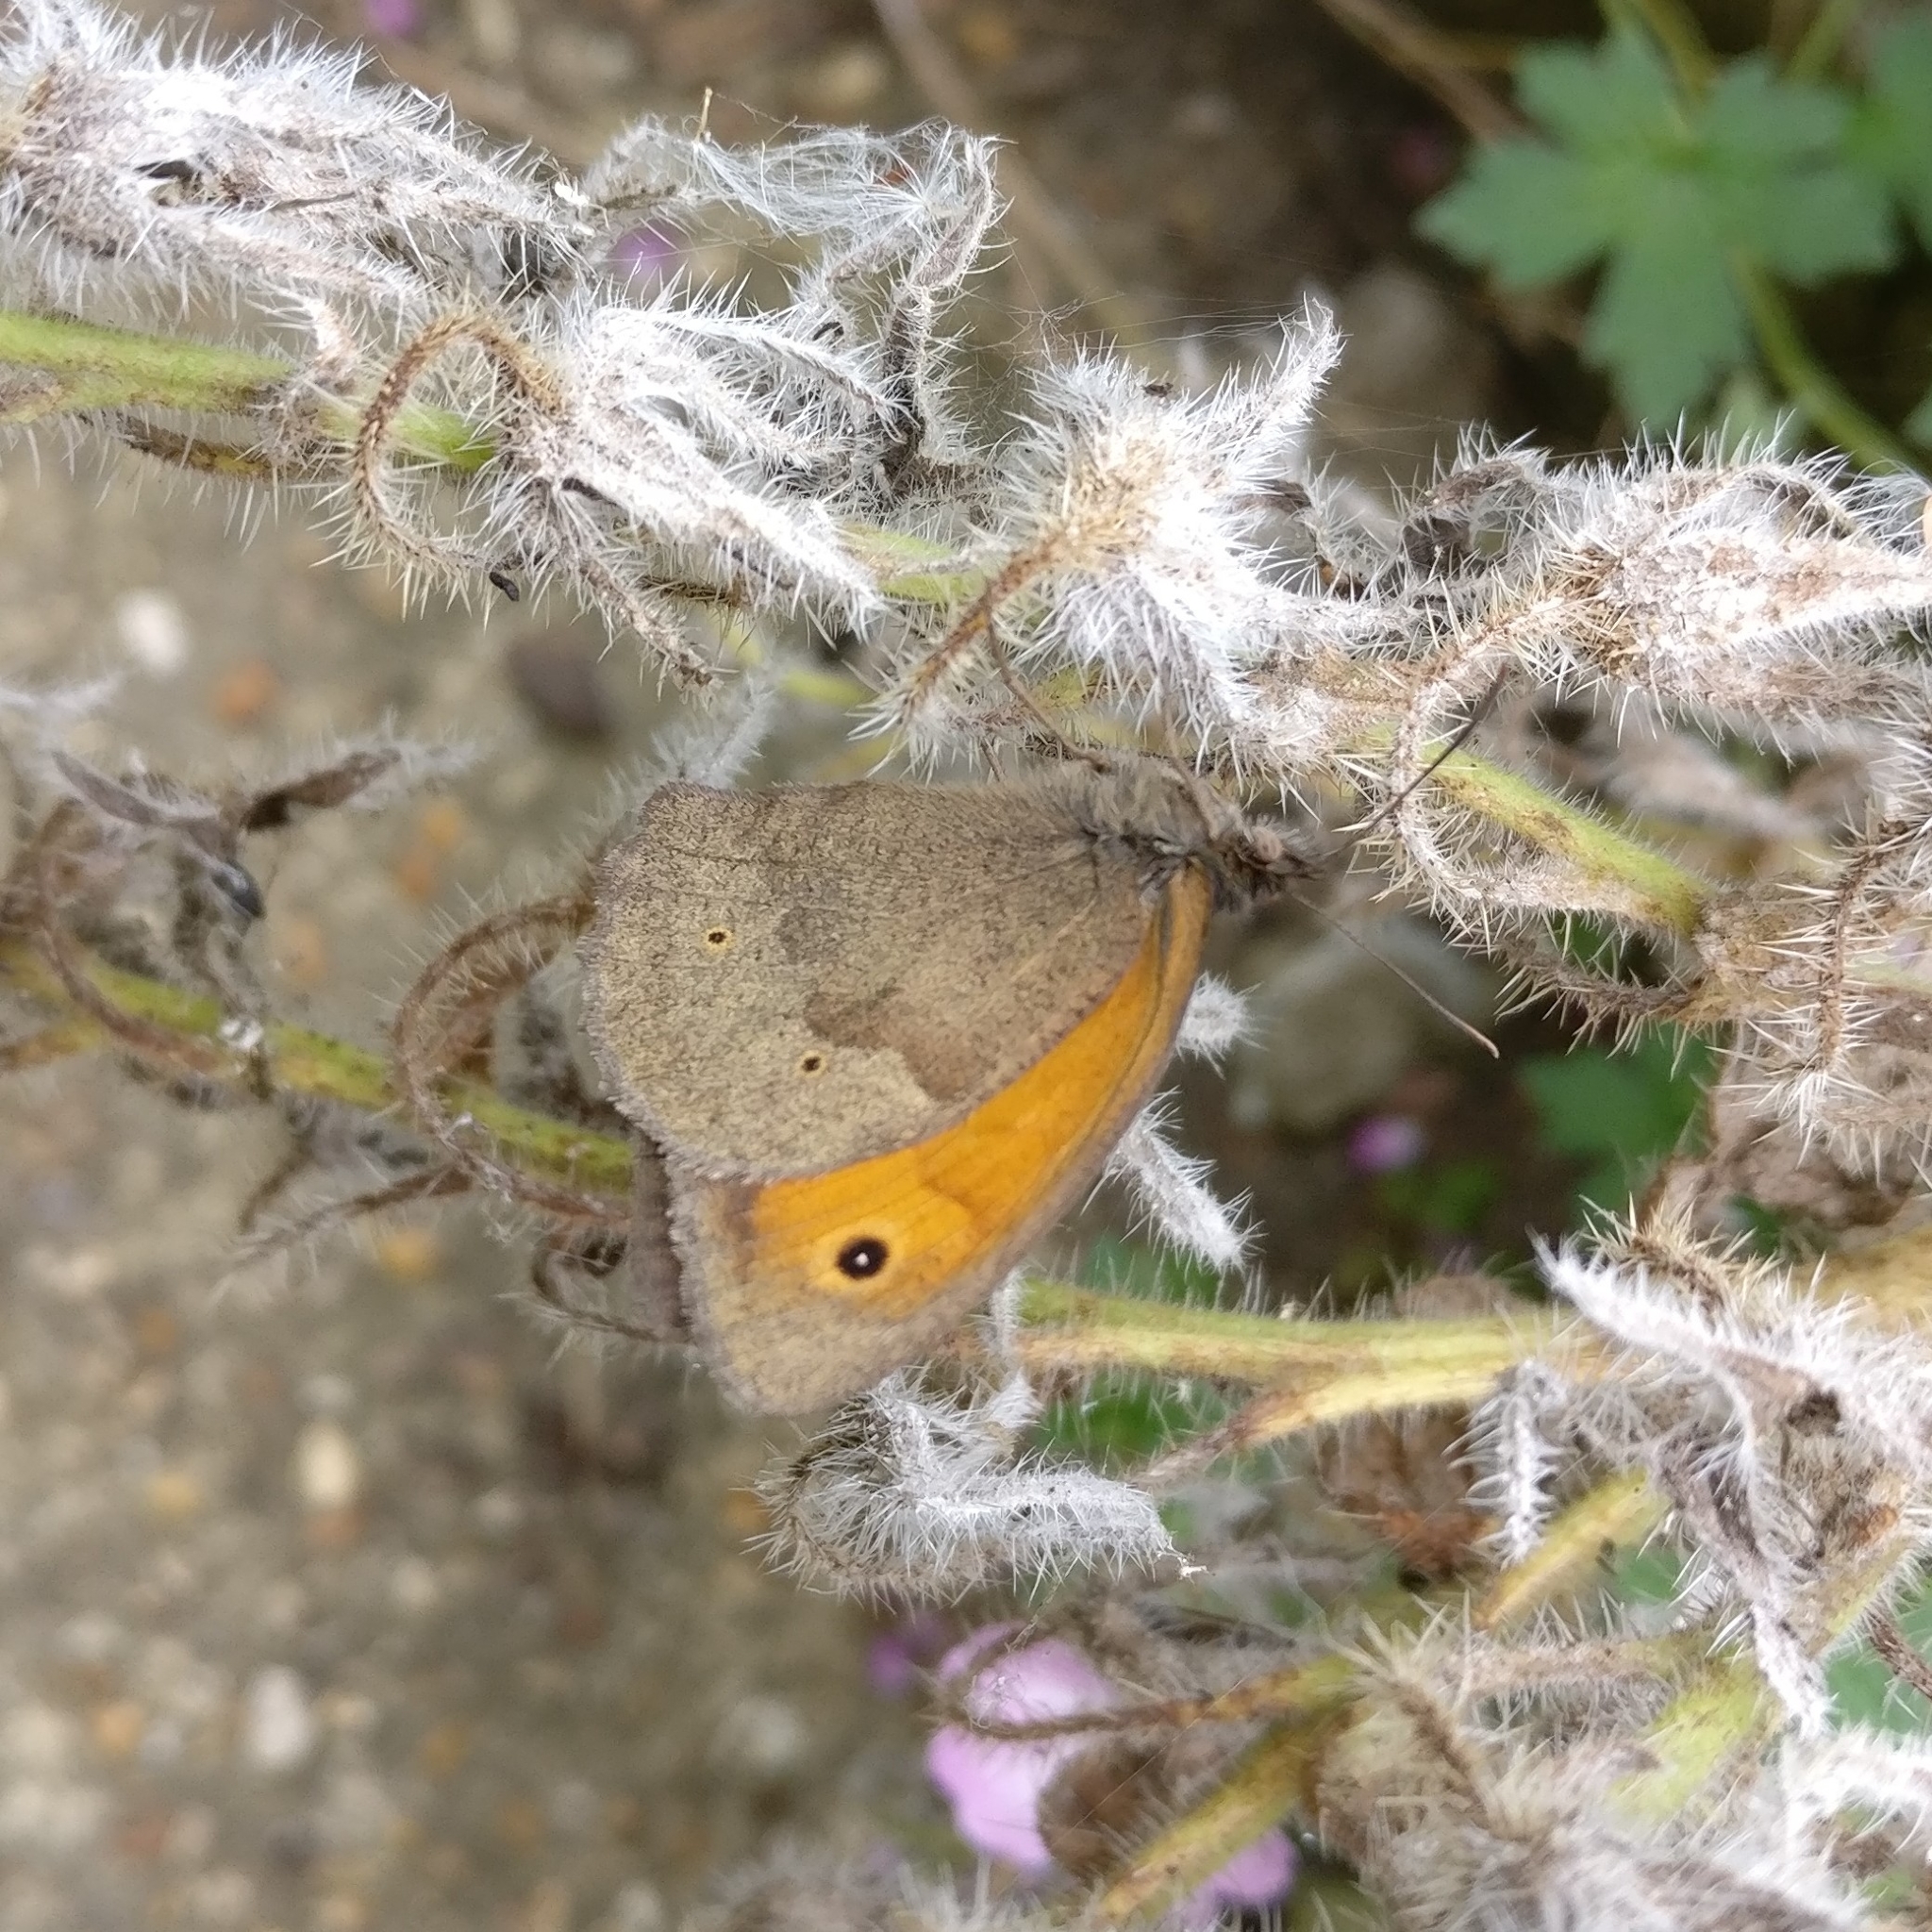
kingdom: Animalia
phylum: Arthropoda
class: Insecta
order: Lepidoptera
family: Nymphalidae
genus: Maniola
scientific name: Maniola jurtina
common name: Meadow brown
